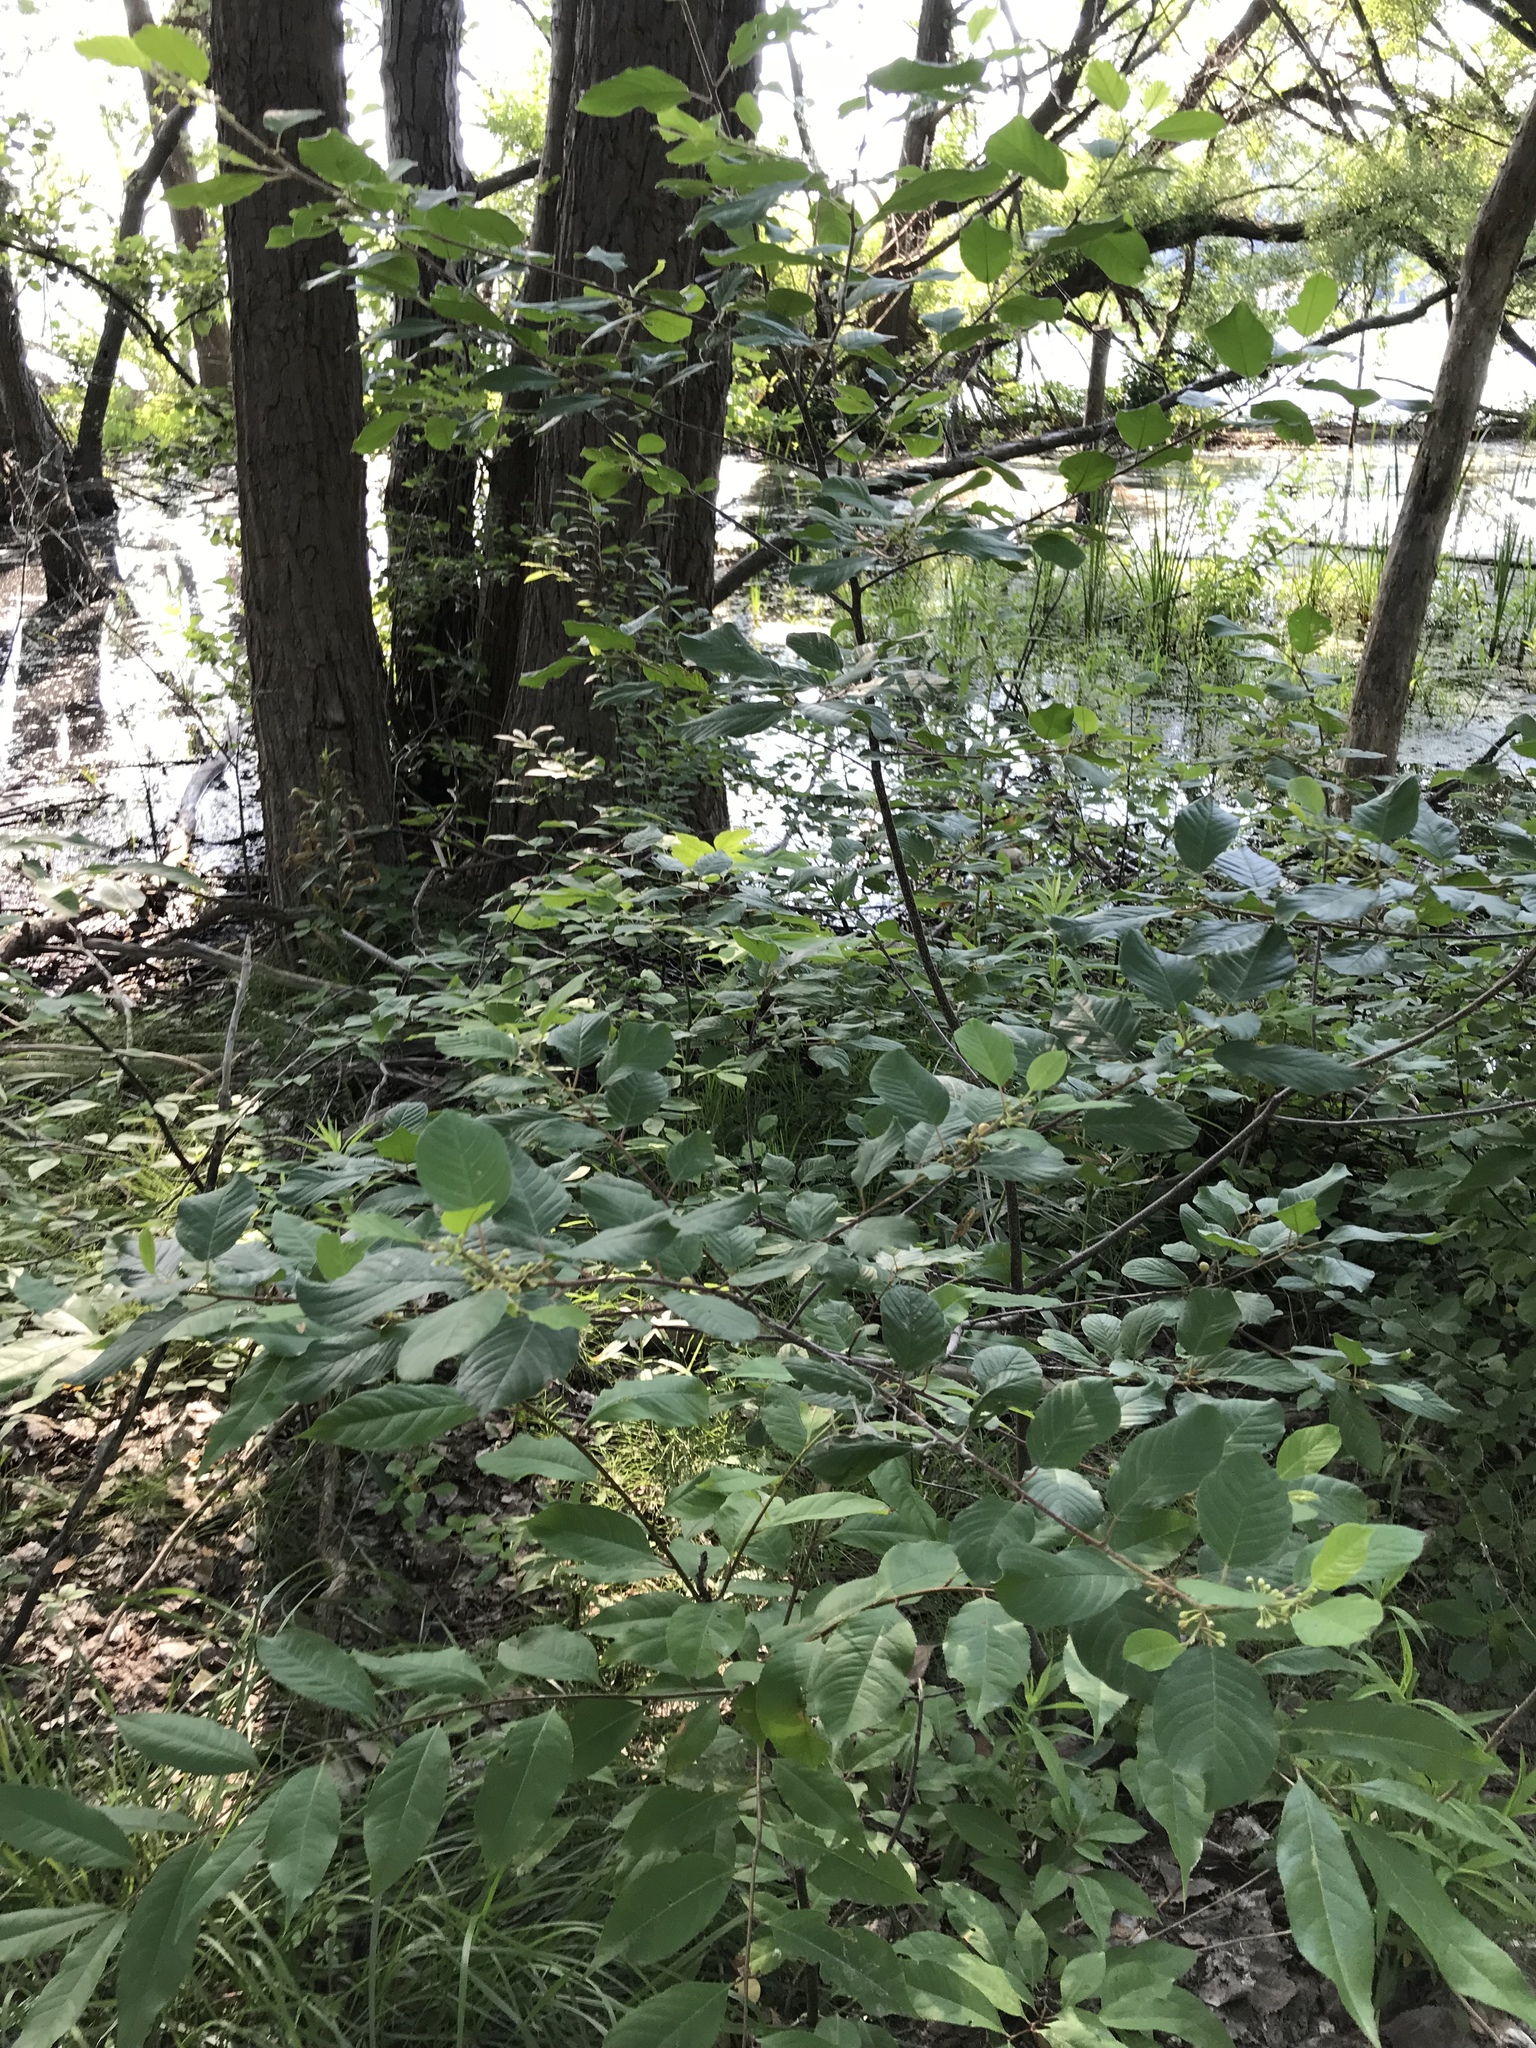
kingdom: Plantae
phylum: Tracheophyta
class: Magnoliopsida
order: Rosales
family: Rhamnaceae
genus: Frangula
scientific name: Frangula alnus
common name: Alder buckthorn
